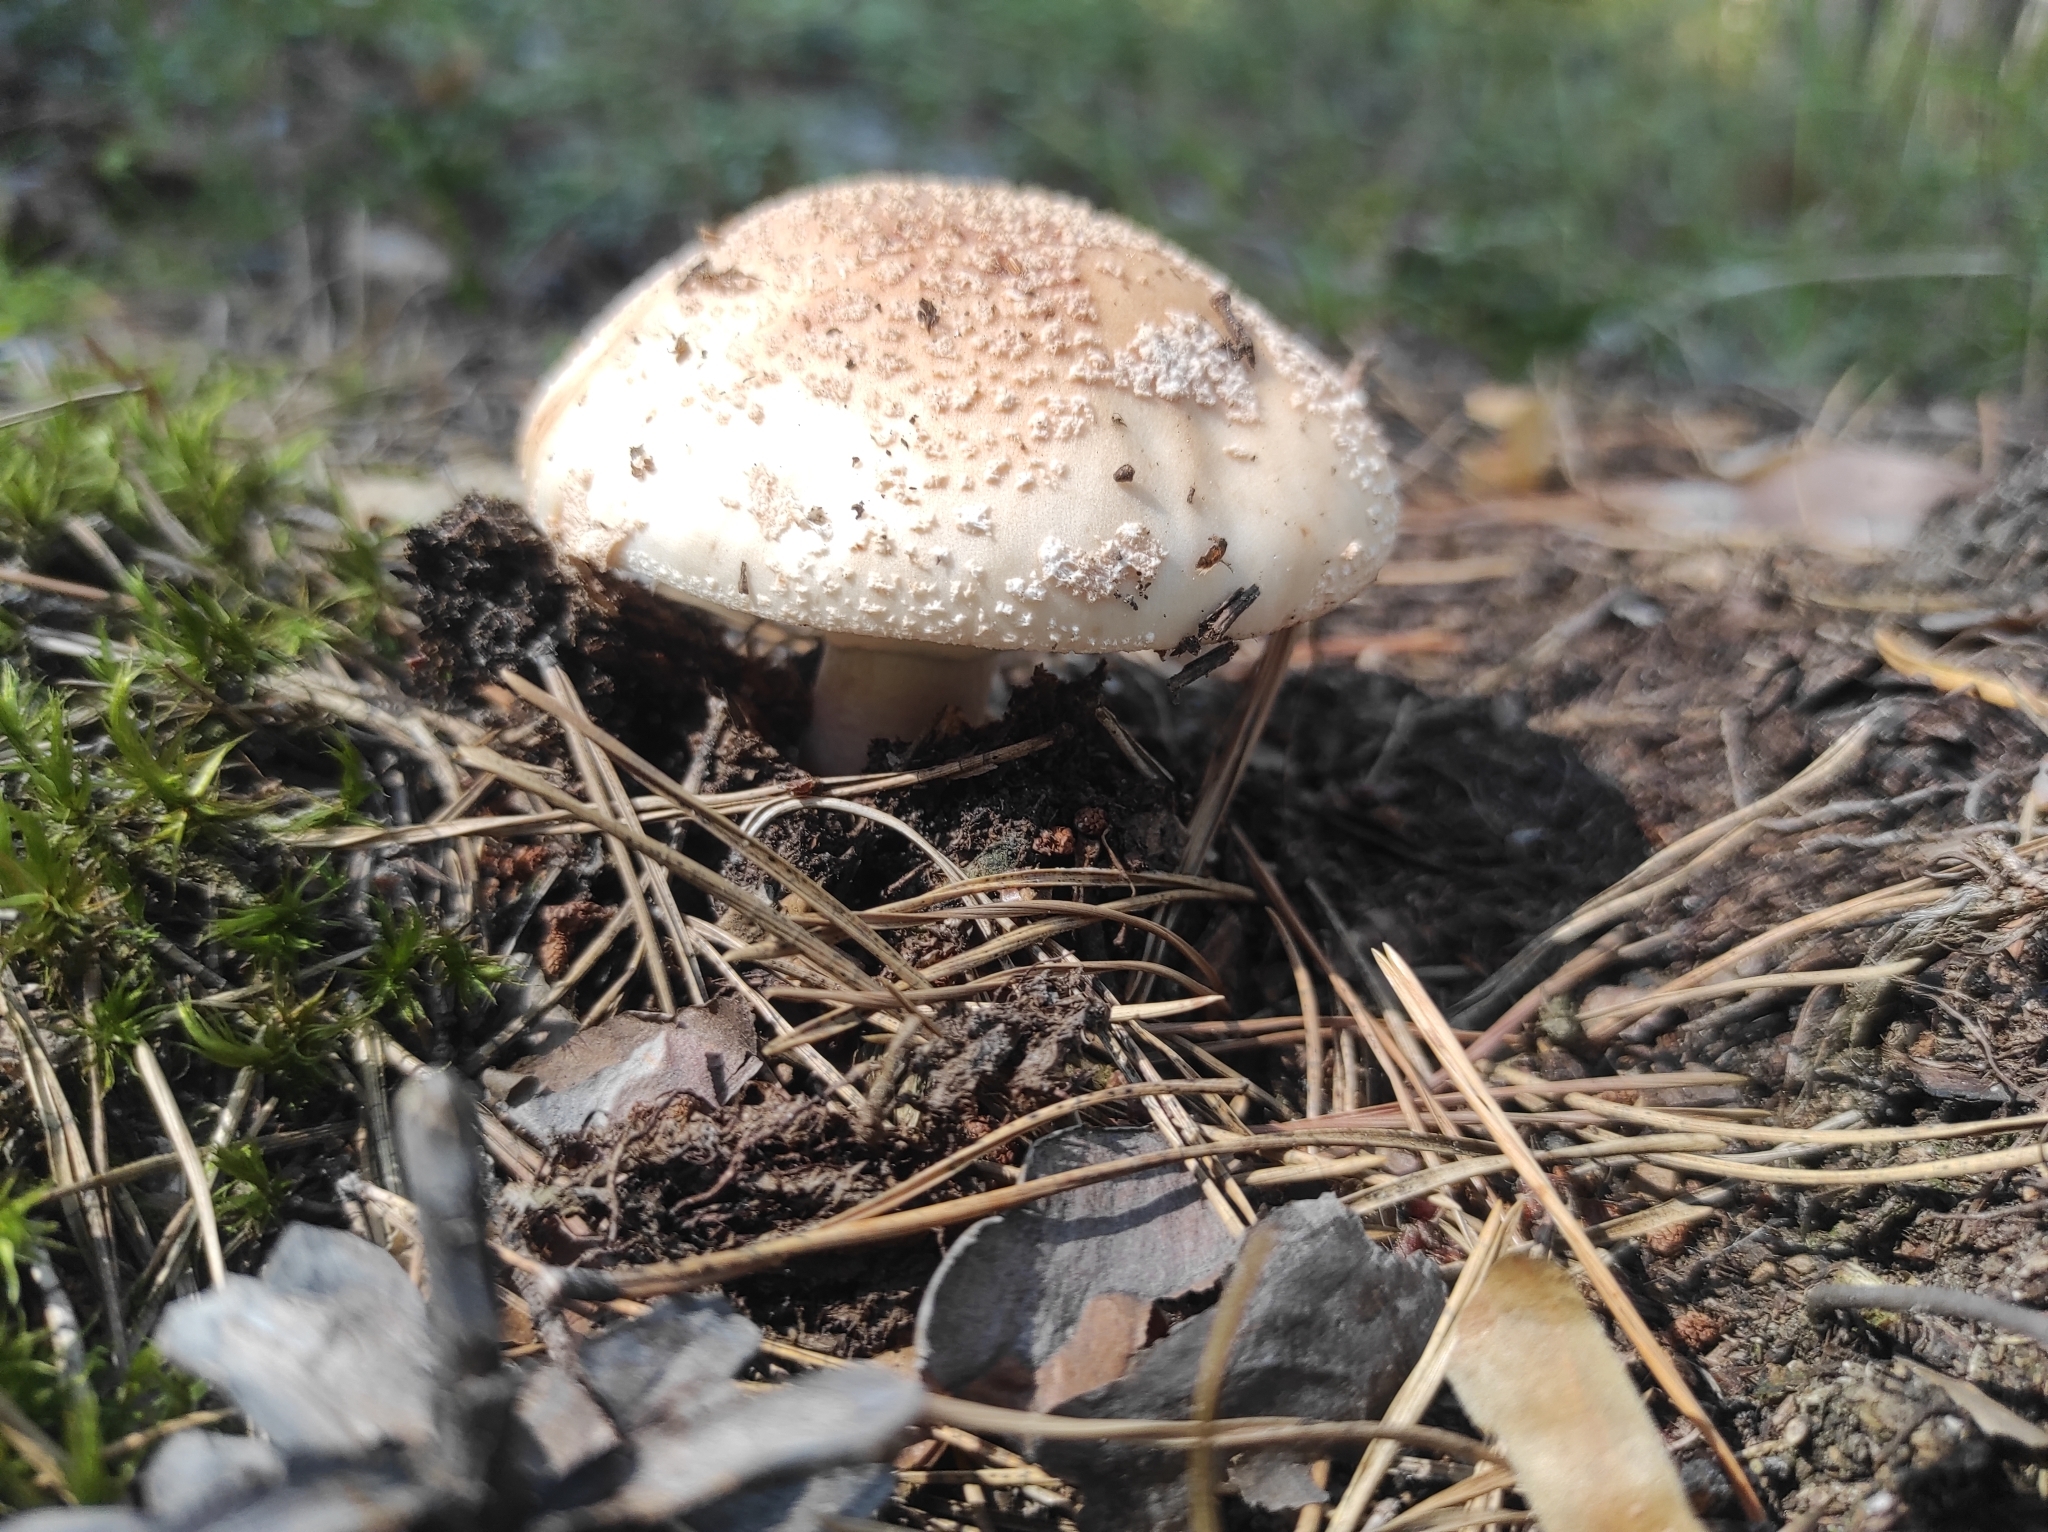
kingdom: Fungi
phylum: Basidiomycota
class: Agaricomycetes
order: Agaricales
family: Amanitaceae
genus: Amanita
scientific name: Amanita rubescens
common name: Blusher
